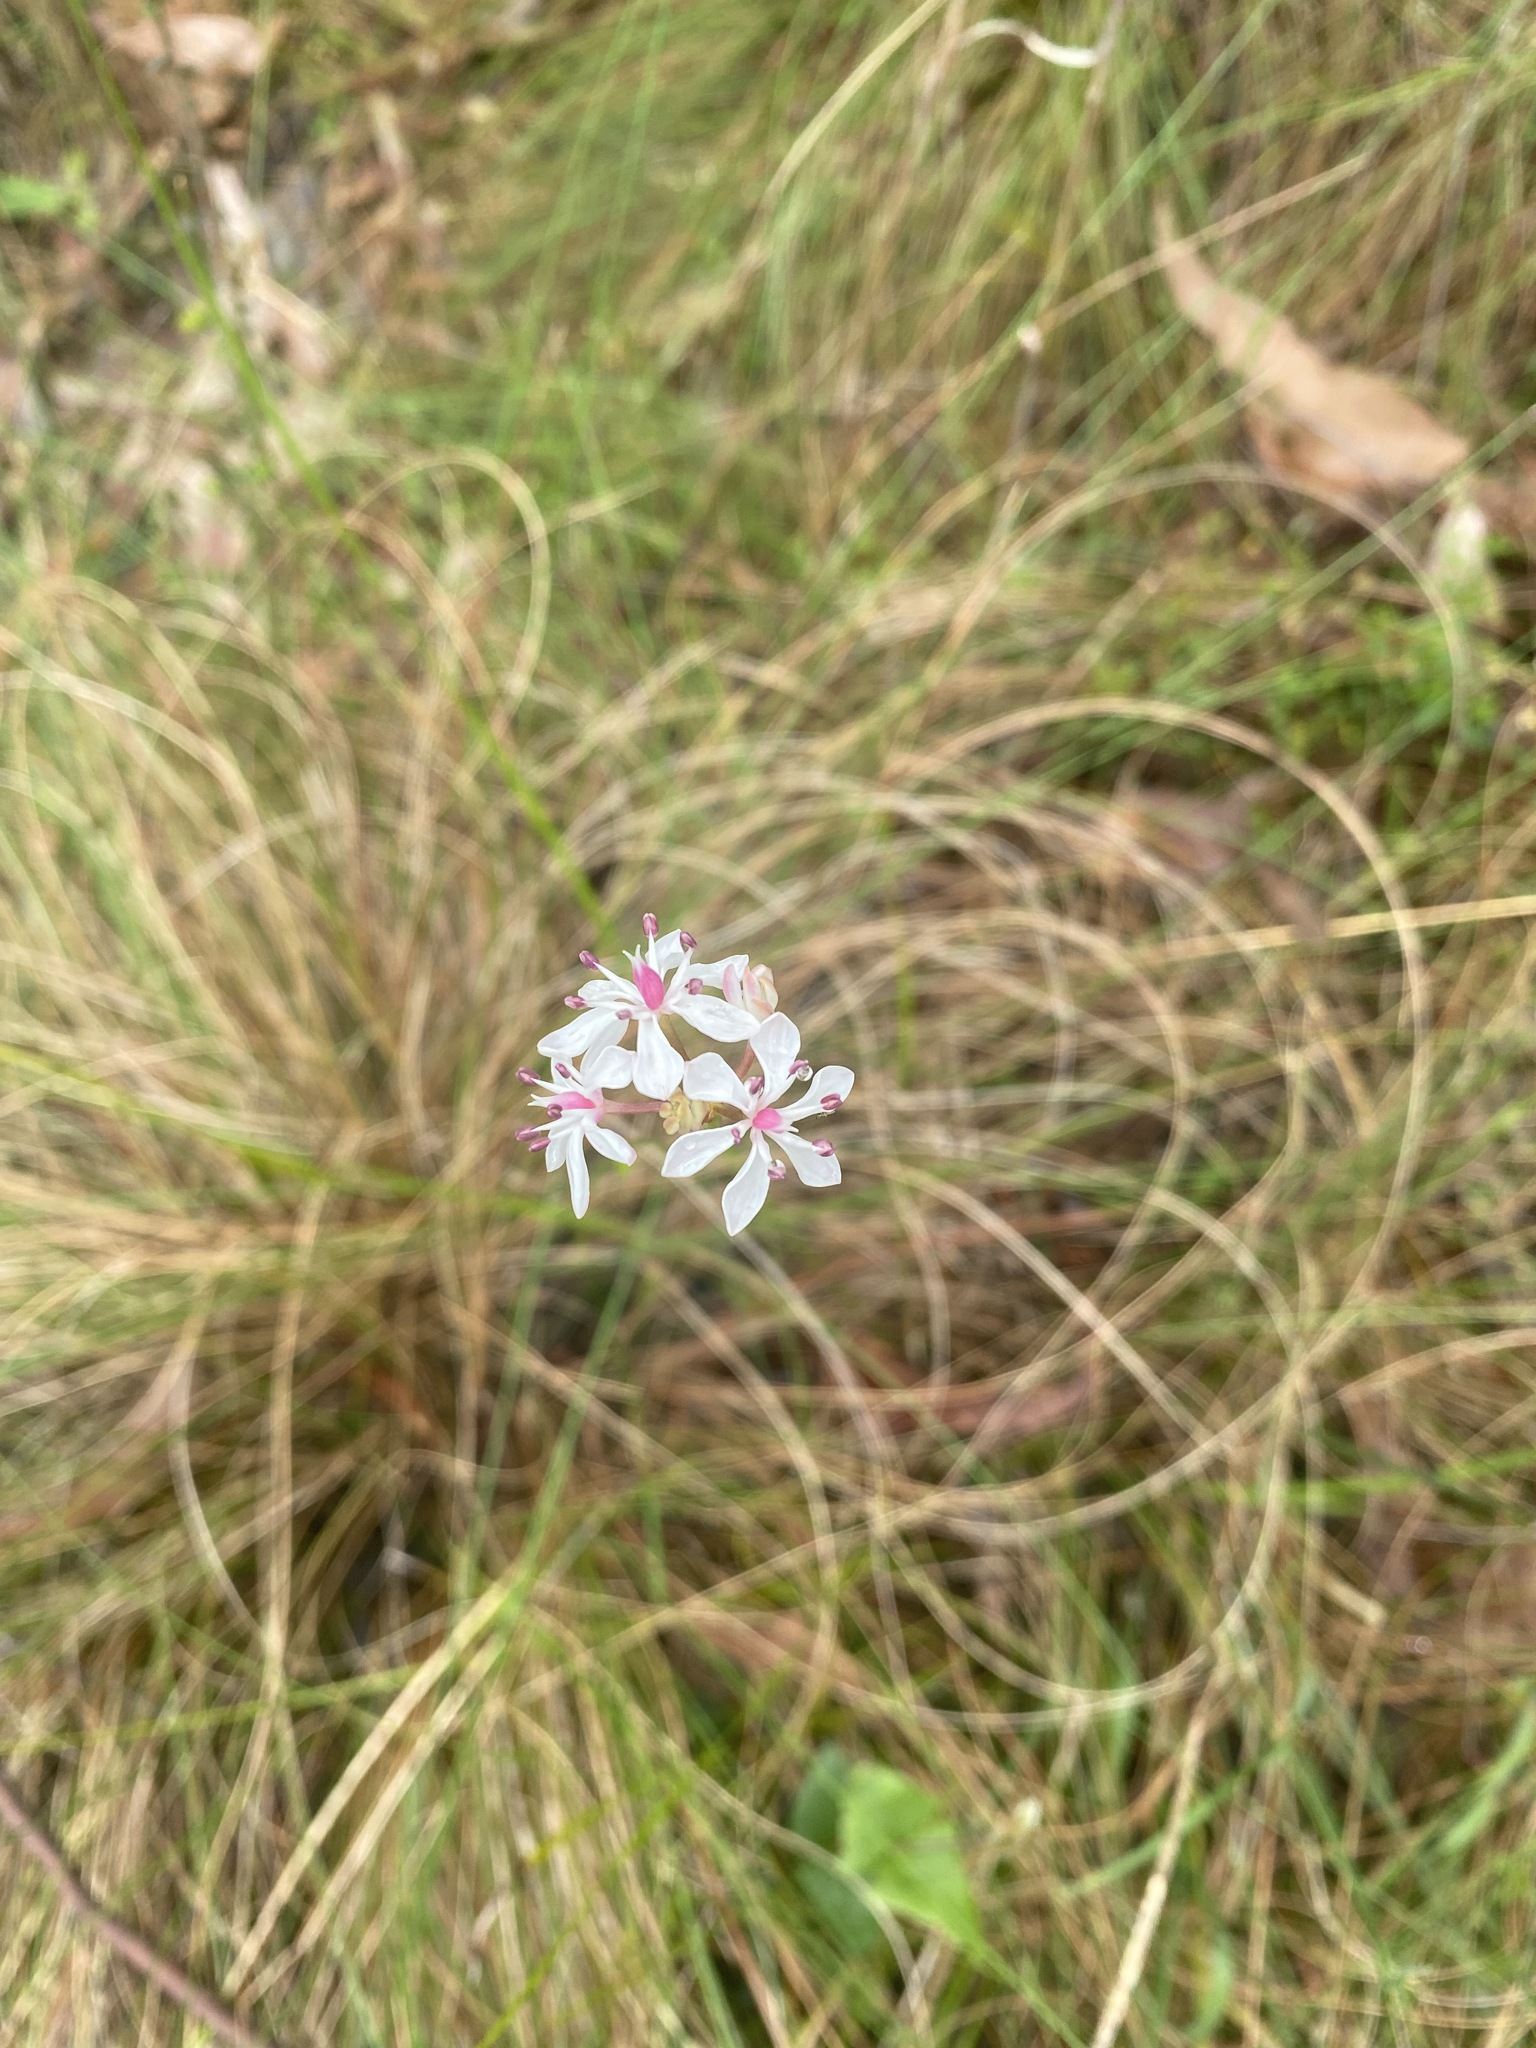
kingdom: Plantae
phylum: Tracheophyta
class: Liliopsida
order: Liliales
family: Colchicaceae
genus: Burchardia
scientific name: Burchardia umbellata
